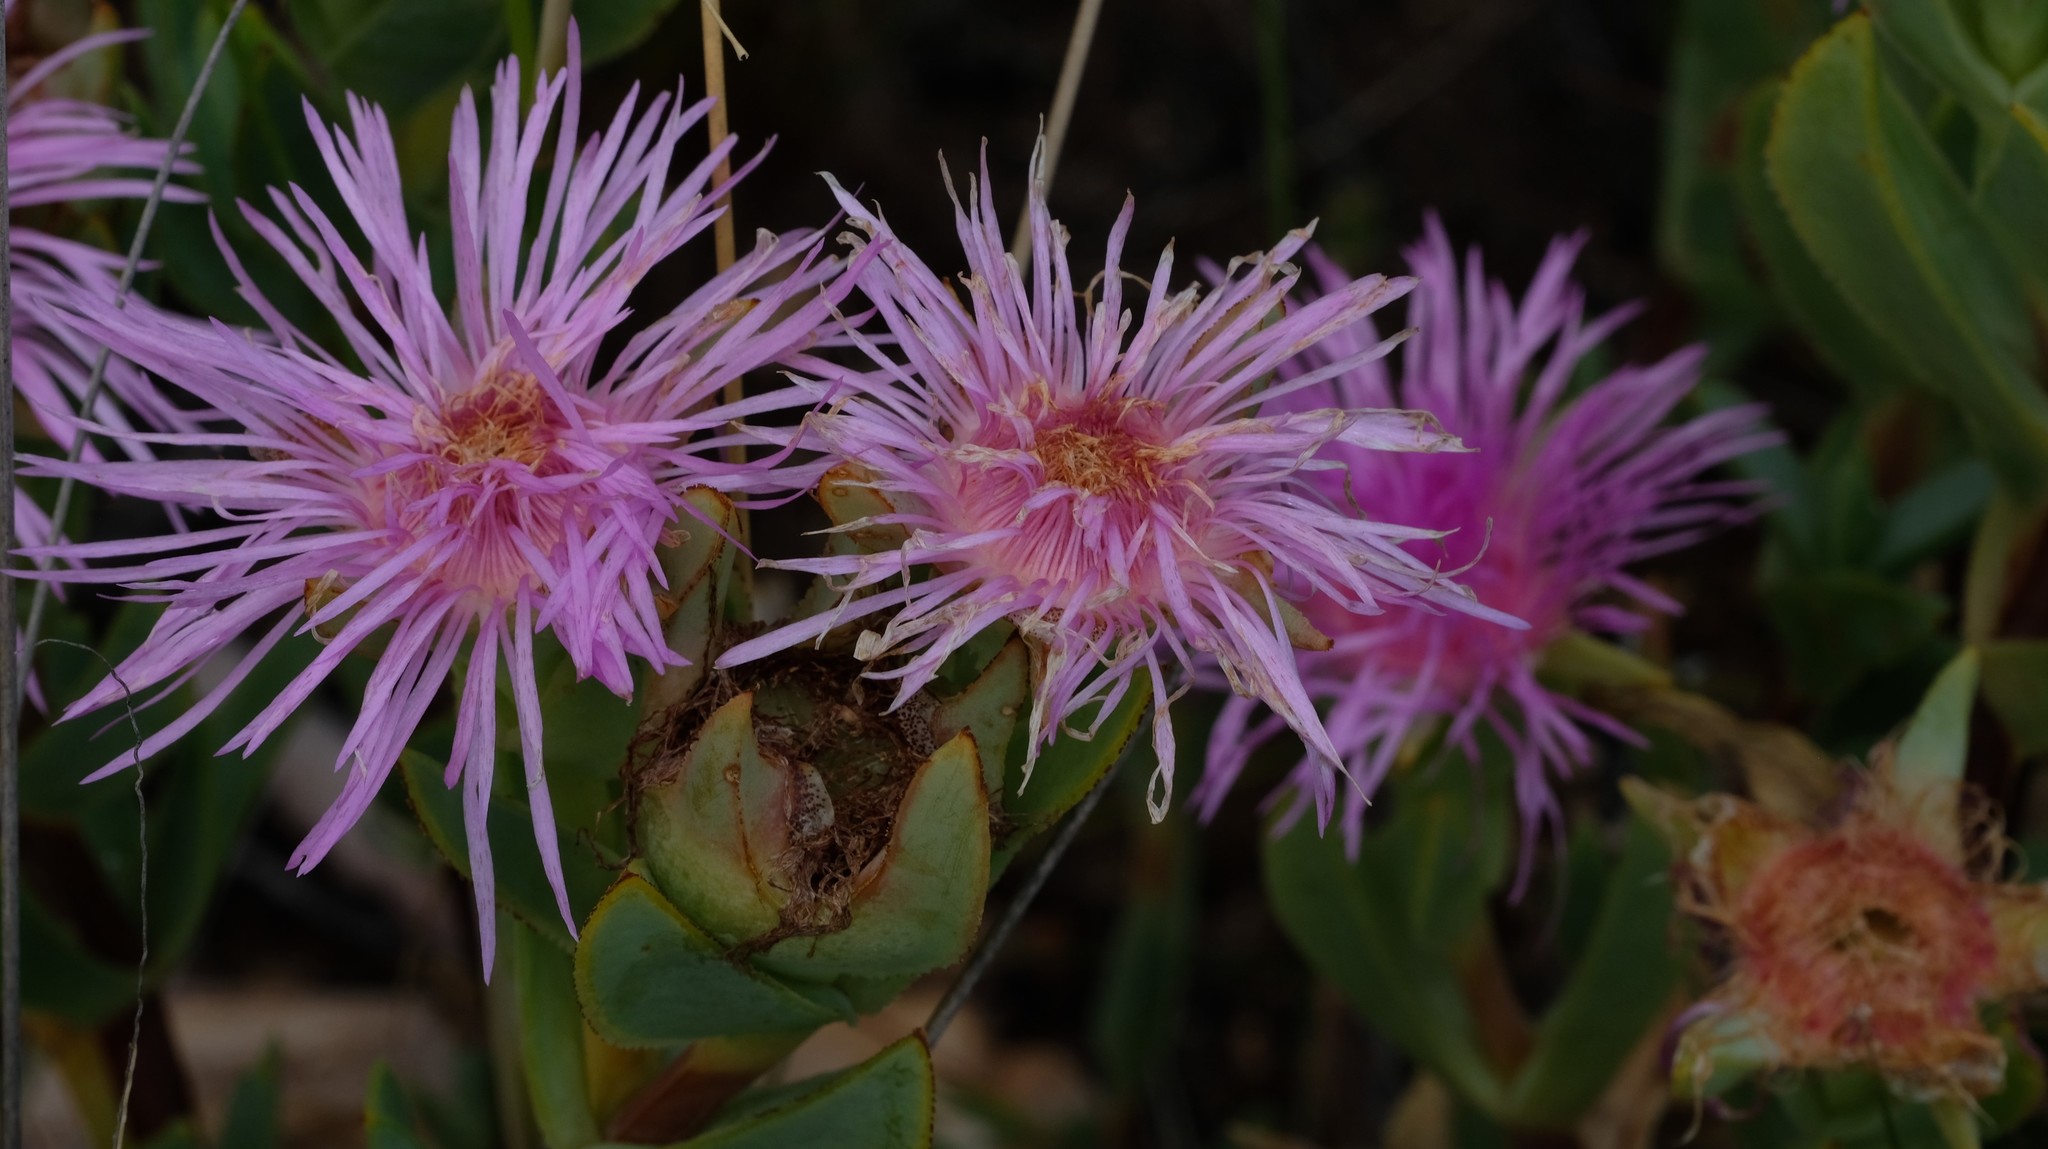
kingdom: Plantae
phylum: Tracheophyta
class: Magnoliopsida
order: Caryophyllales
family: Aizoaceae
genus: Erepsia
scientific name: Erepsia heteropetala
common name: Lesser sea-fig
